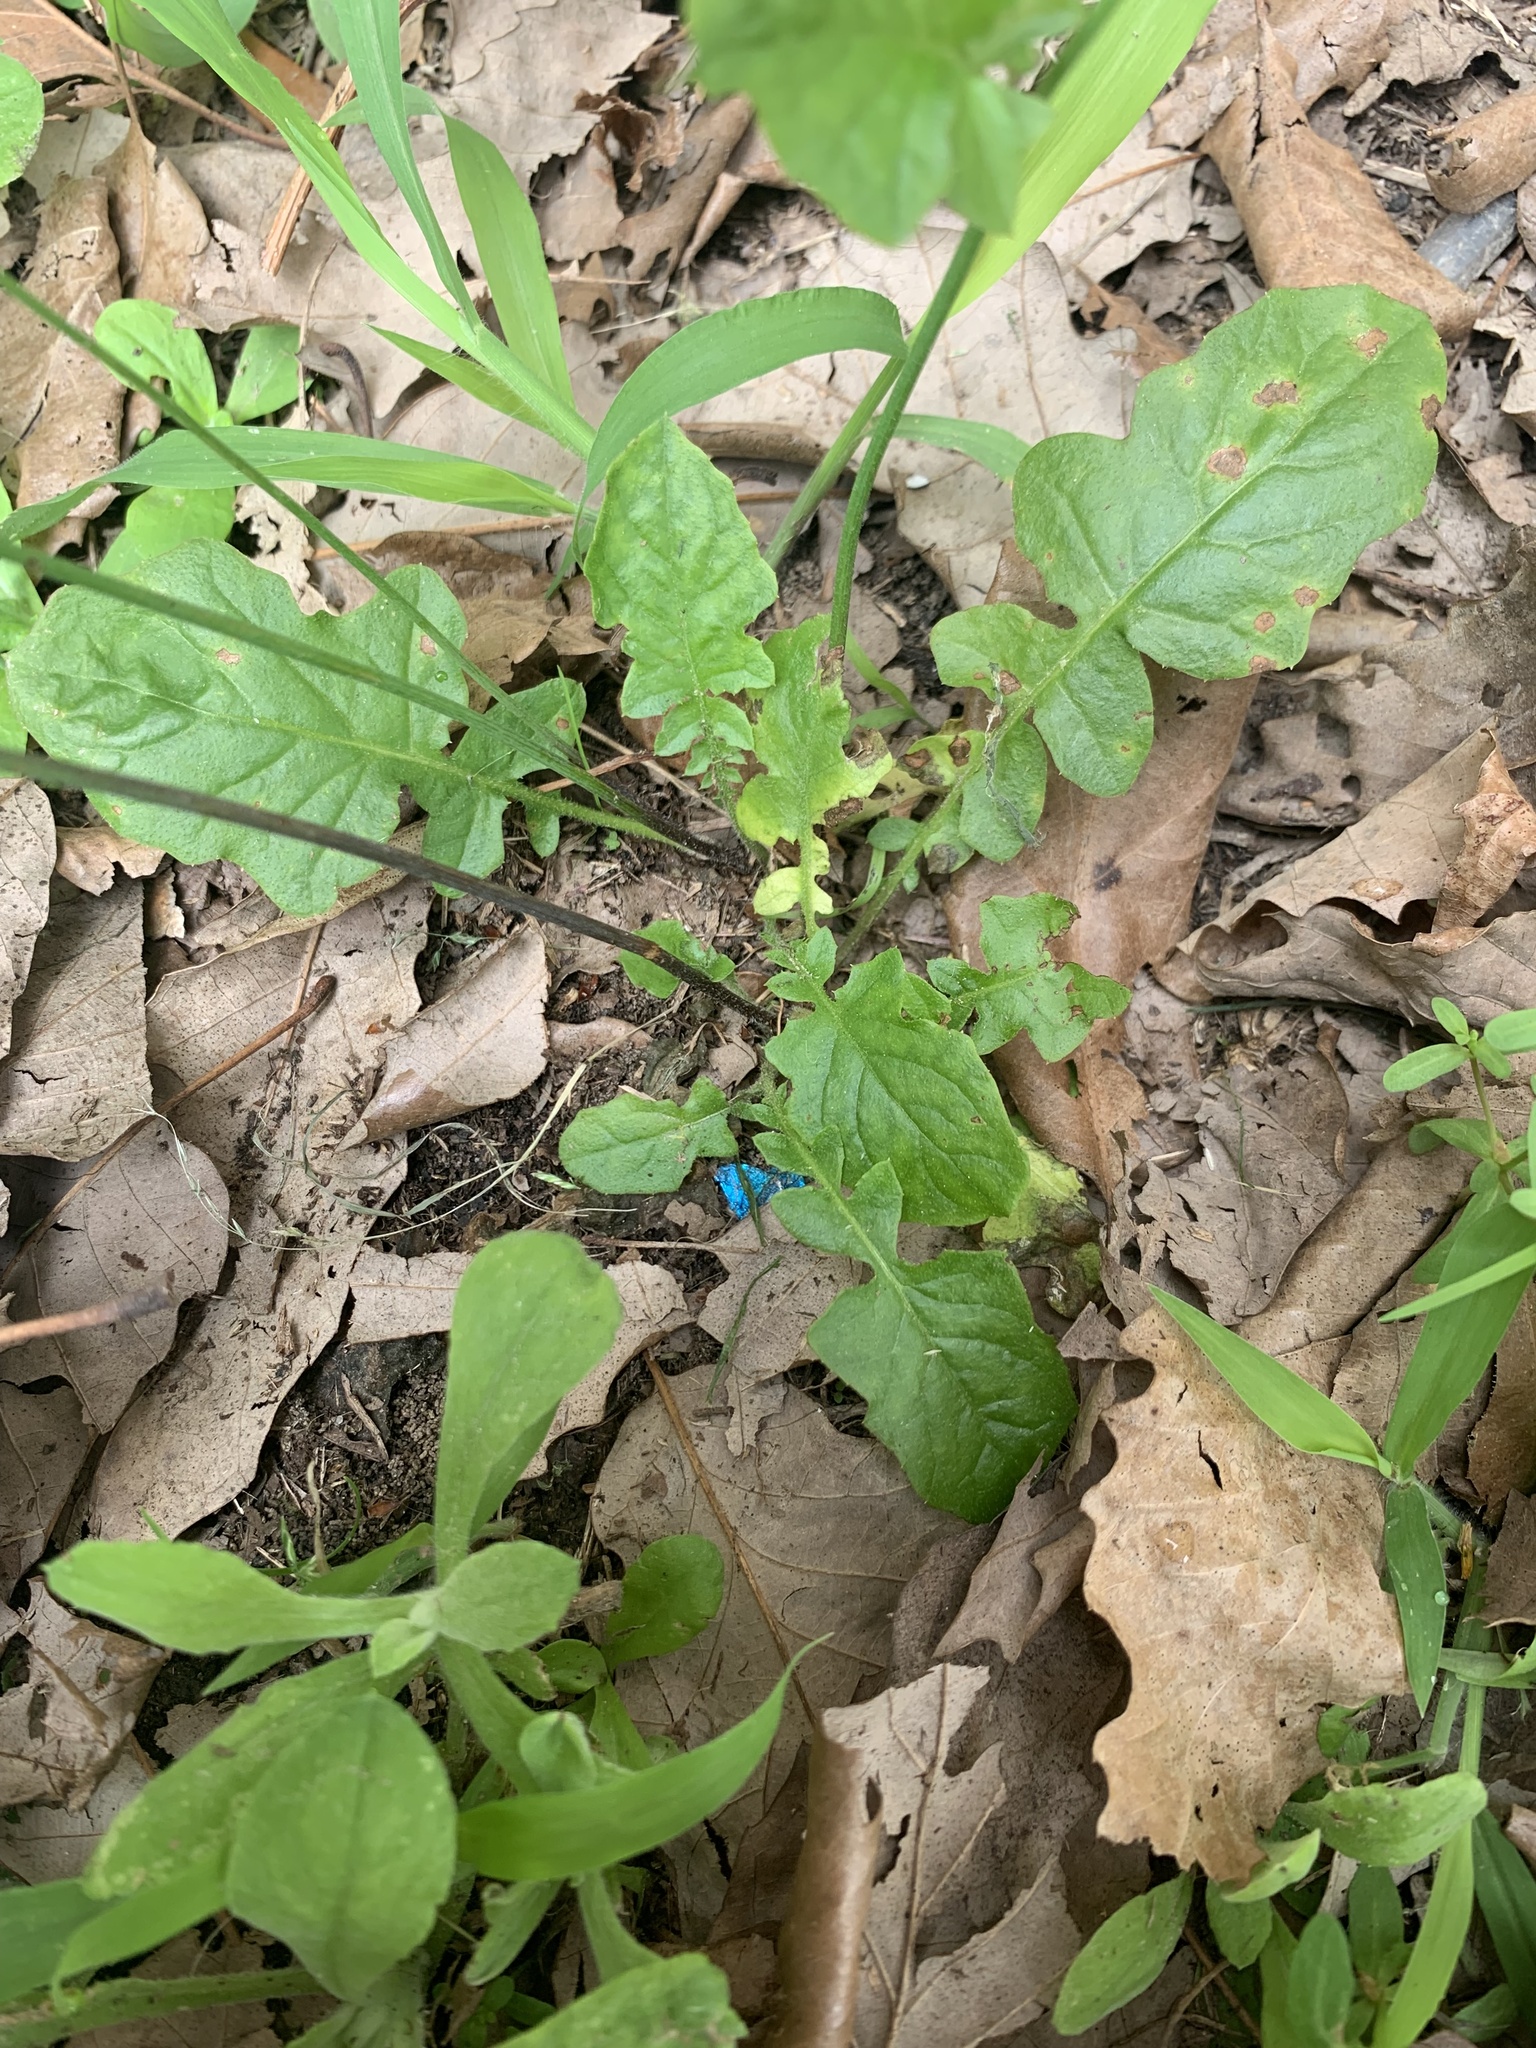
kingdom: Plantae
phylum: Tracheophyta
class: Magnoliopsida
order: Asterales
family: Asteraceae
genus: Youngia
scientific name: Youngia japonica
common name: Oriental false hawksbeard
